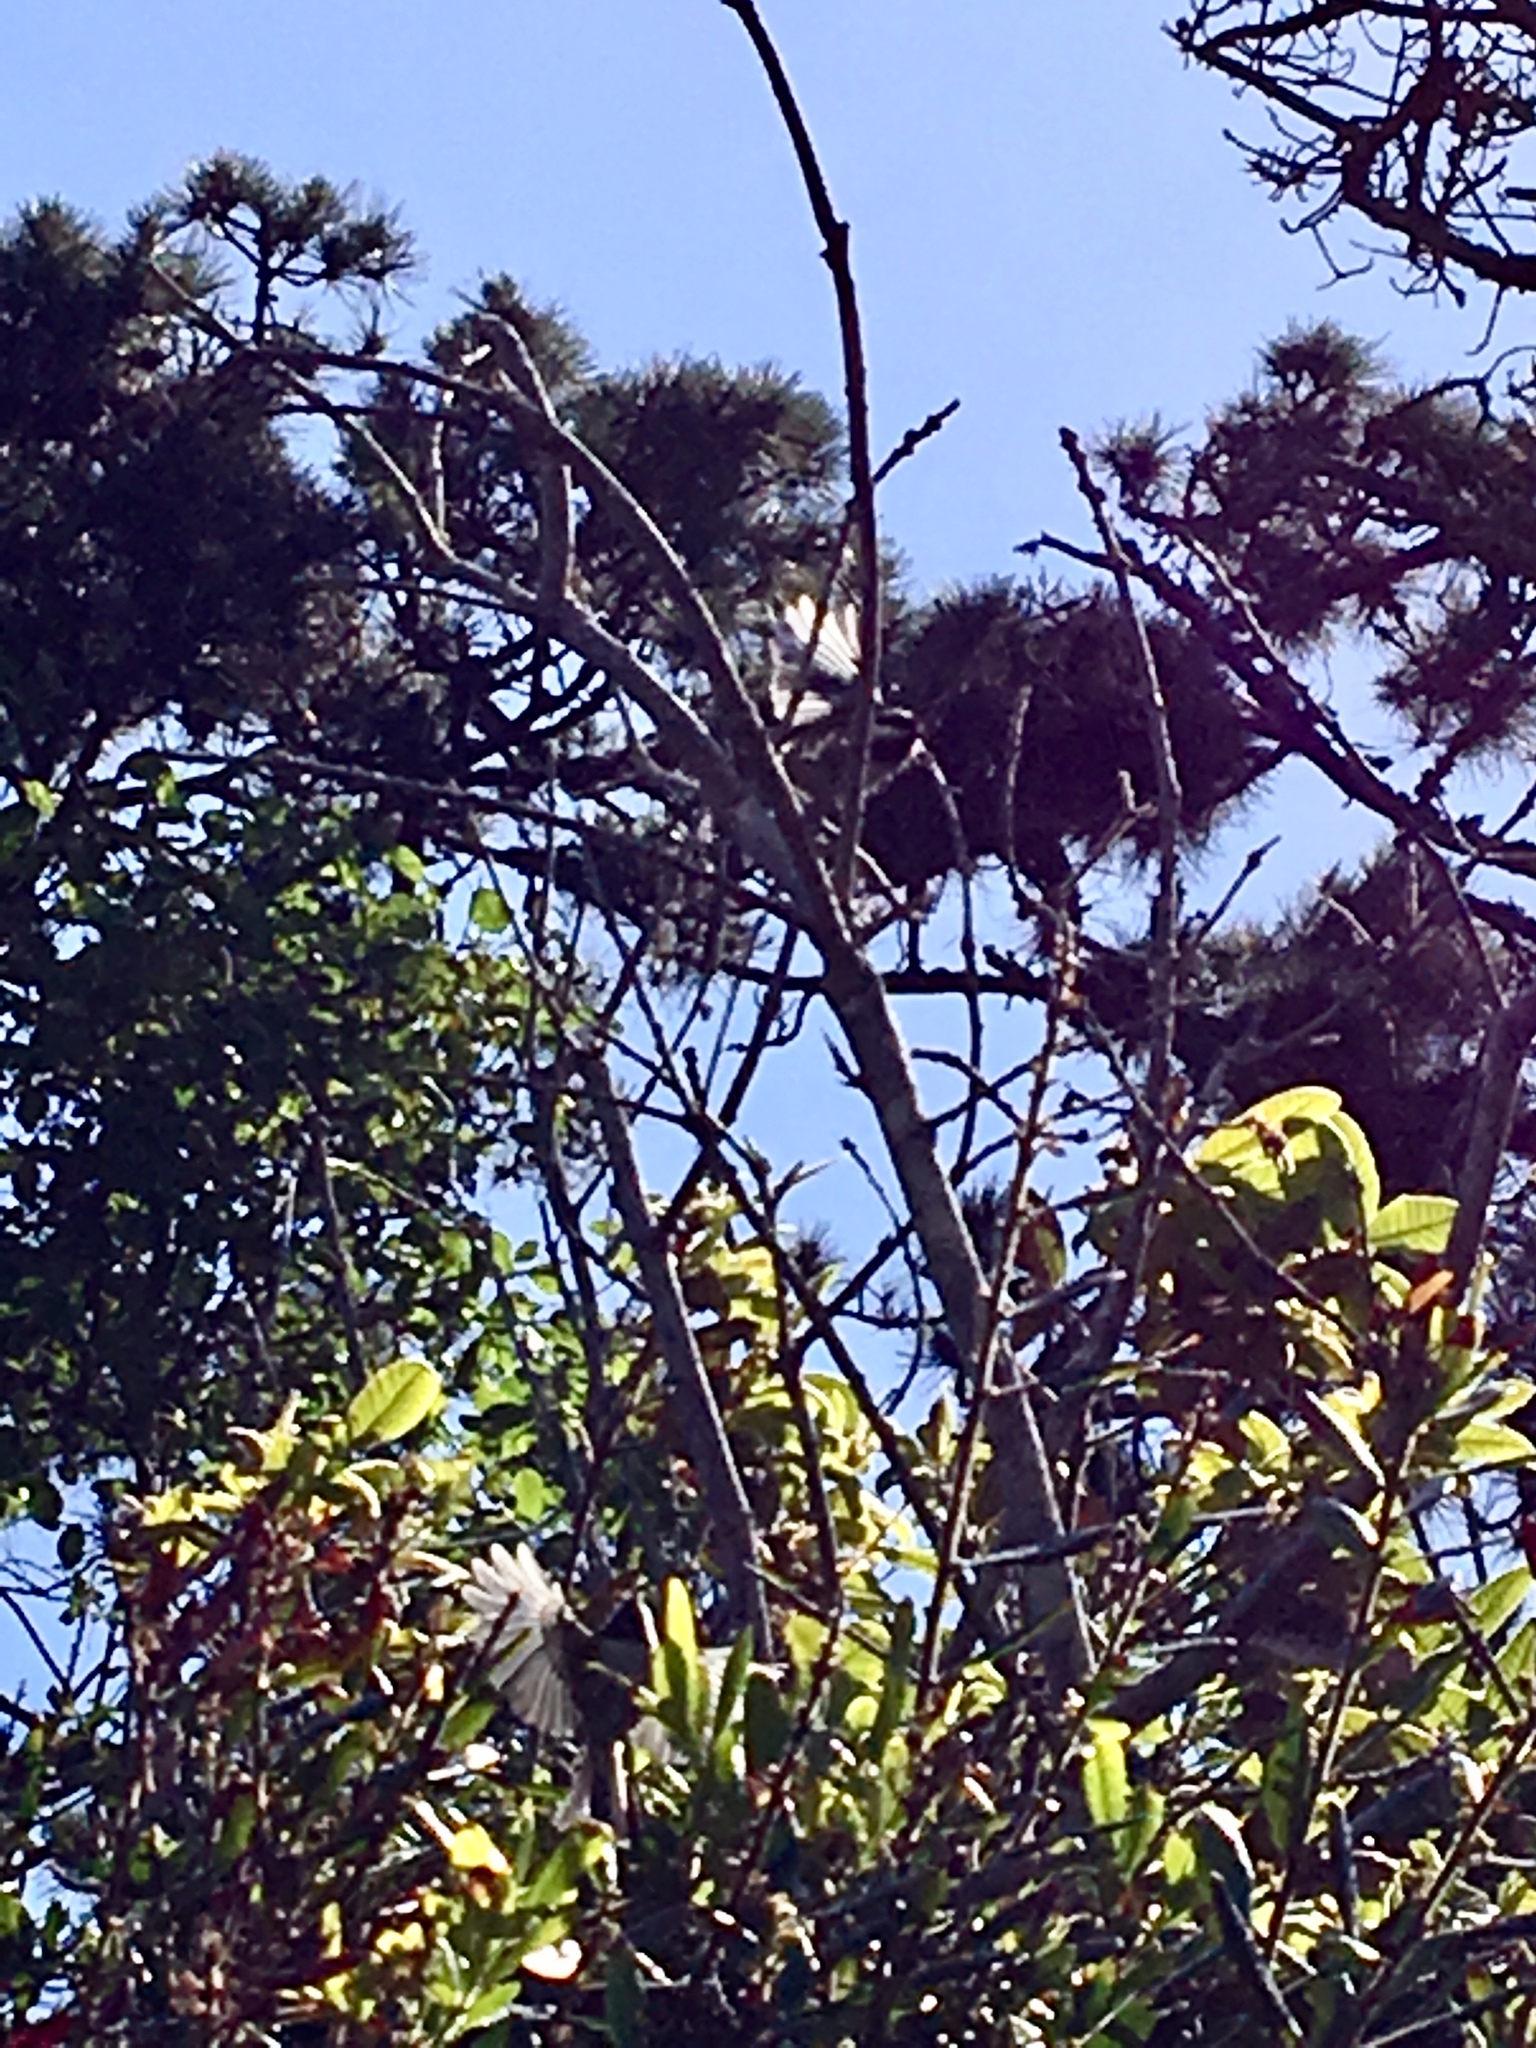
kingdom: Animalia
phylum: Chordata
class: Aves
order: Passeriformes
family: Paridae
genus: Poecile
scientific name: Poecile rufescens
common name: Chestnut-backed chickadee
